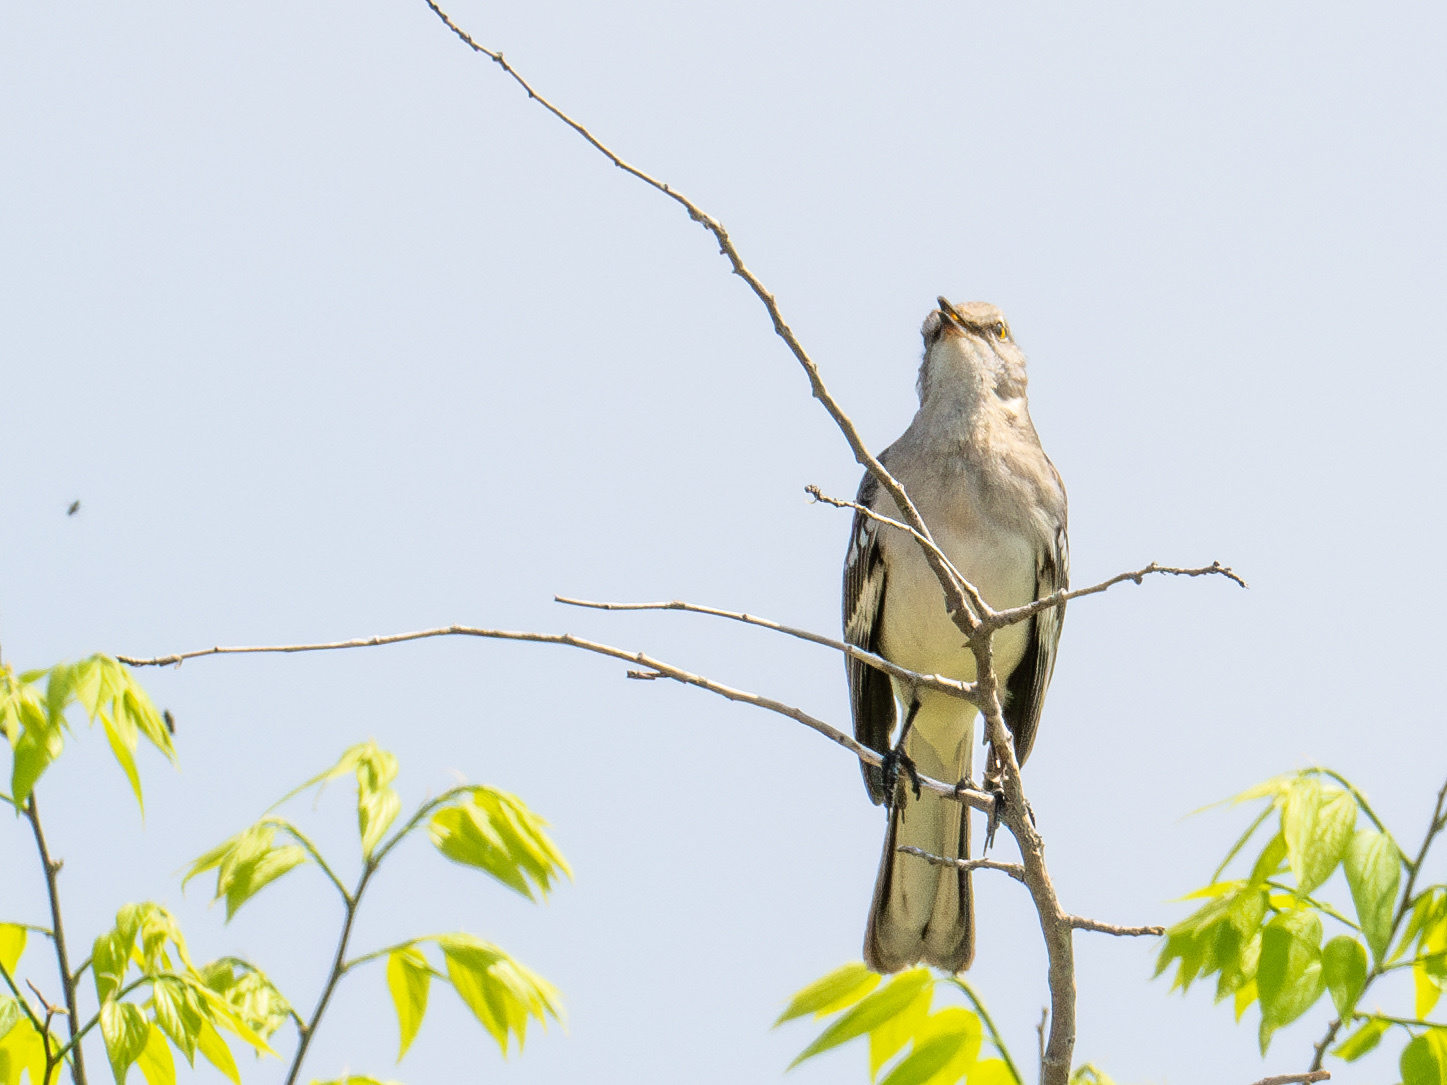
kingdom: Animalia
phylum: Chordata
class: Aves
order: Passeriformes
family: Mimidae
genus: Mimus
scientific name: Mimus polyglottos
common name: Northern mockingbird
